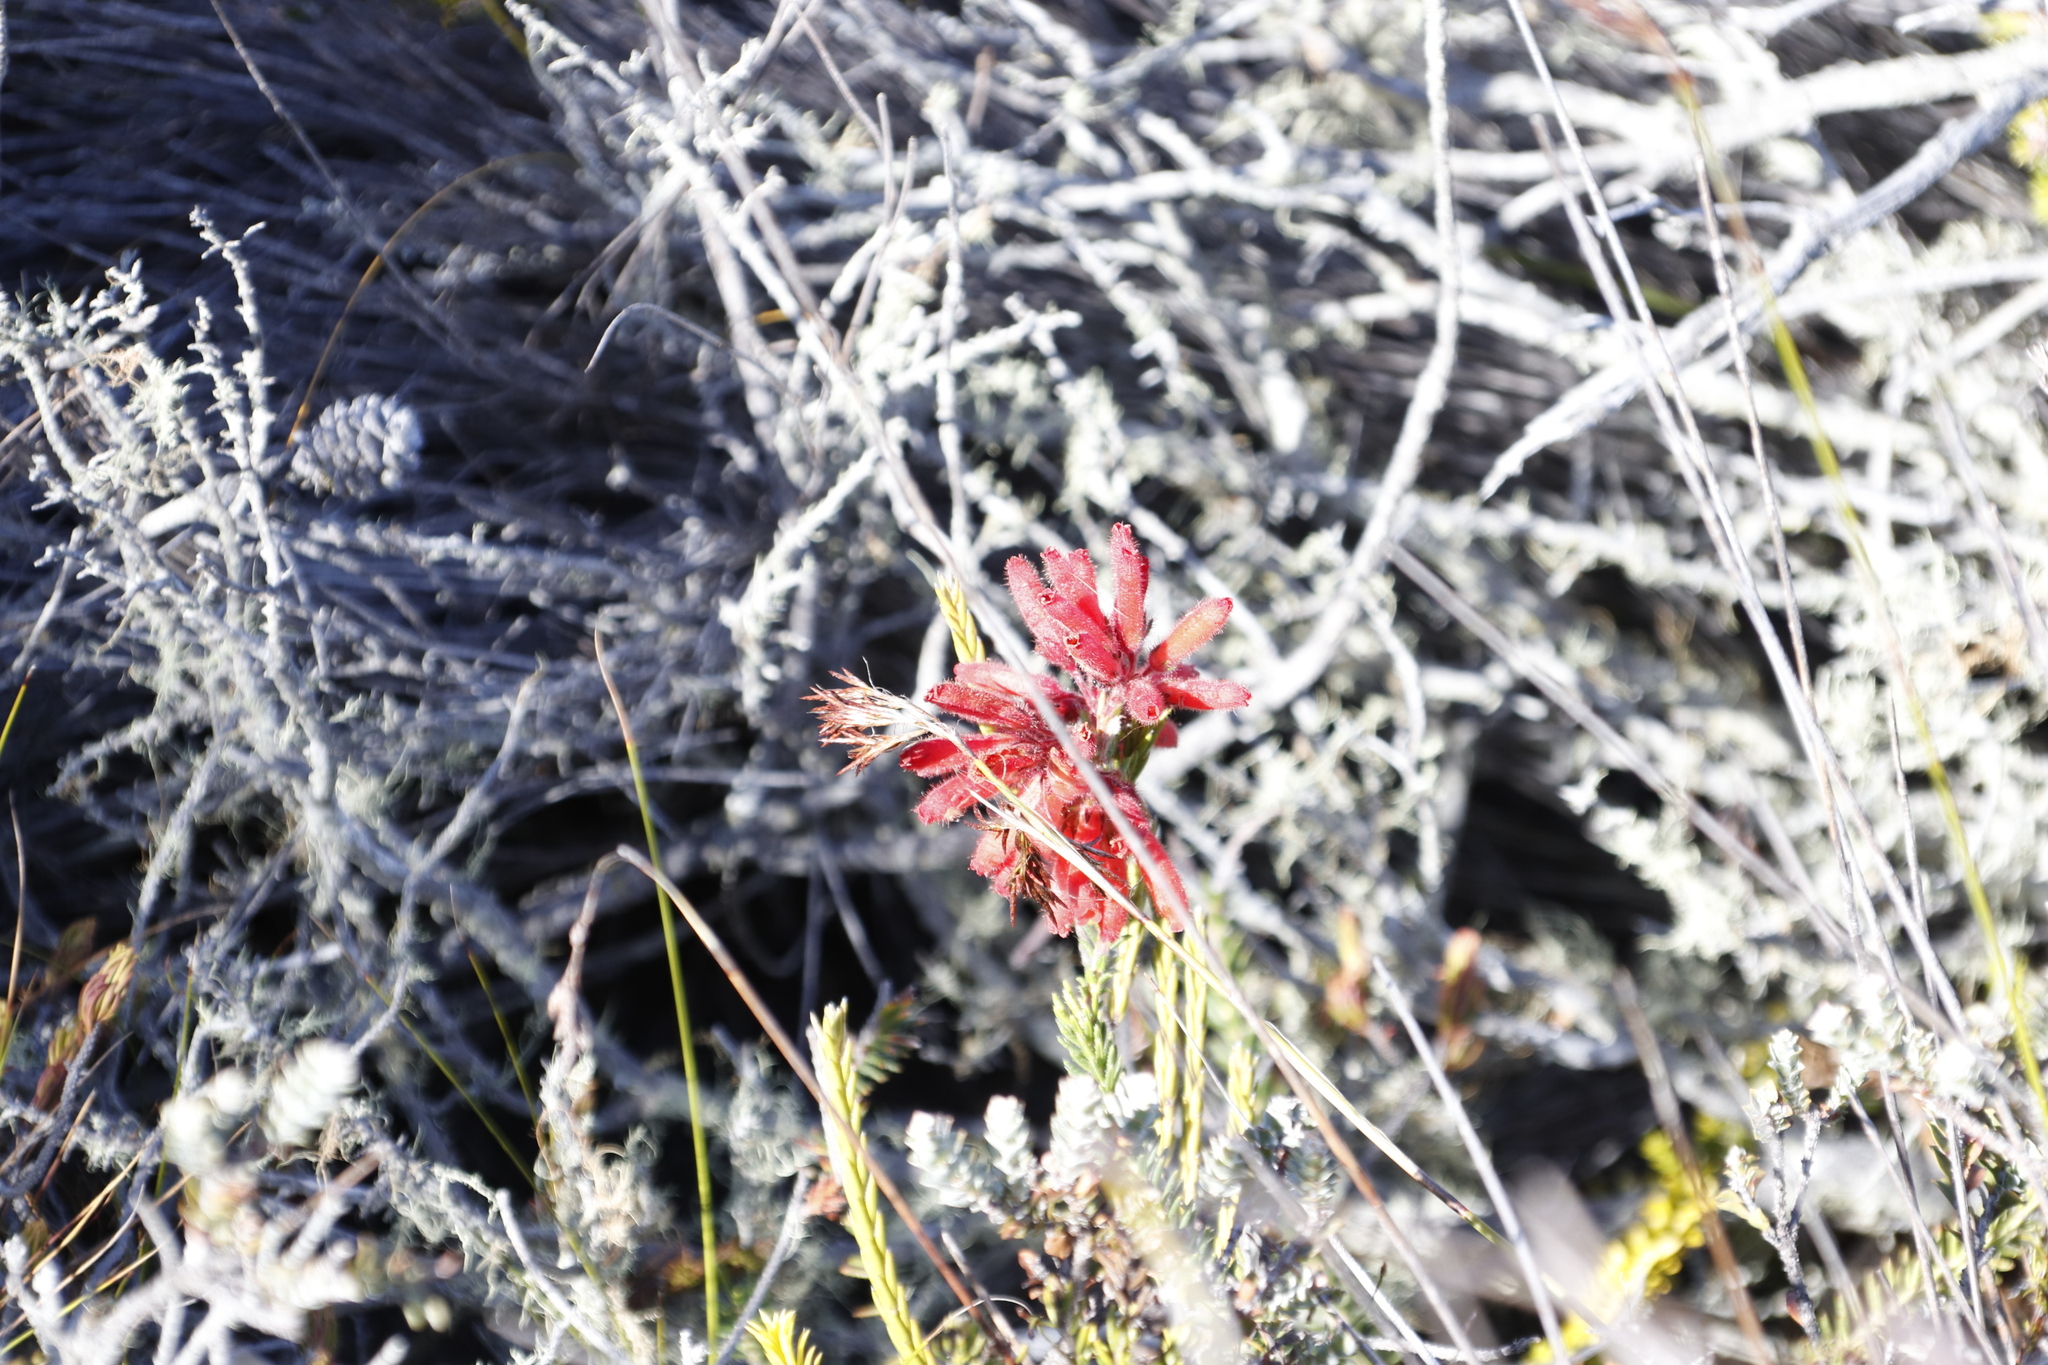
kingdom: Plantae
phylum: Tracheophyta
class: Magnoliopsida
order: Ericales
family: Ericaceae
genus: Erica
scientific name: Erica cerinthoides
